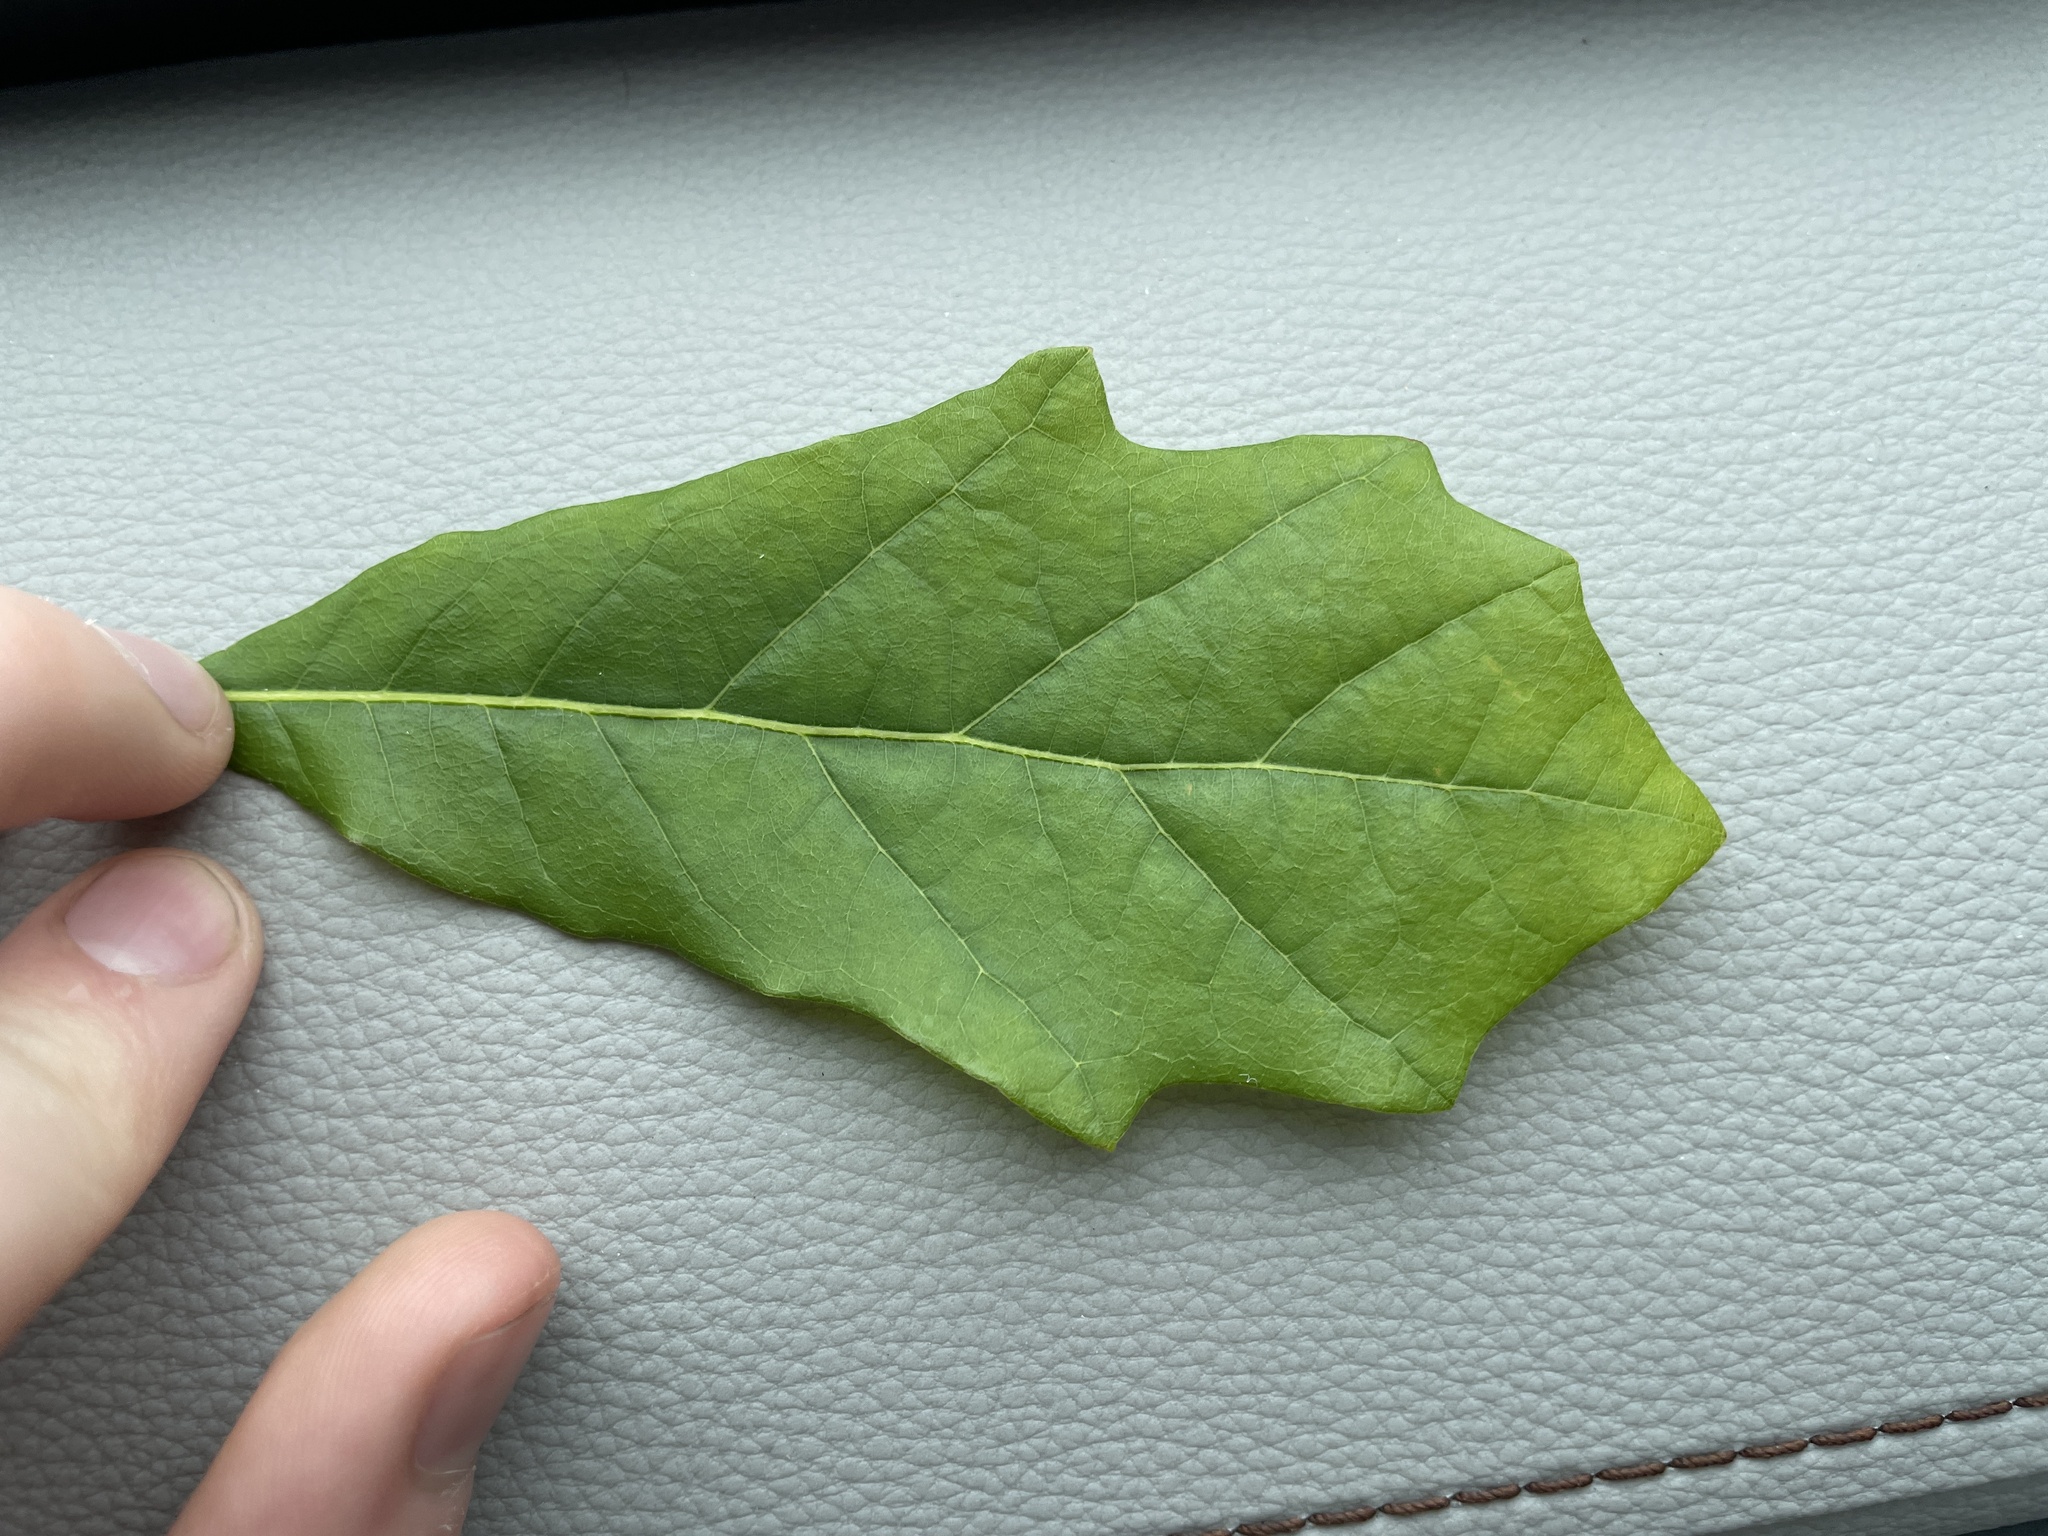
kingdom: Plantae
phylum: Tracheophyta
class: Magnoliopsida
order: Fagales
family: Fagaceae
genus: Quercus
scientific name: Quercus bicolor
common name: Swamp white oak
